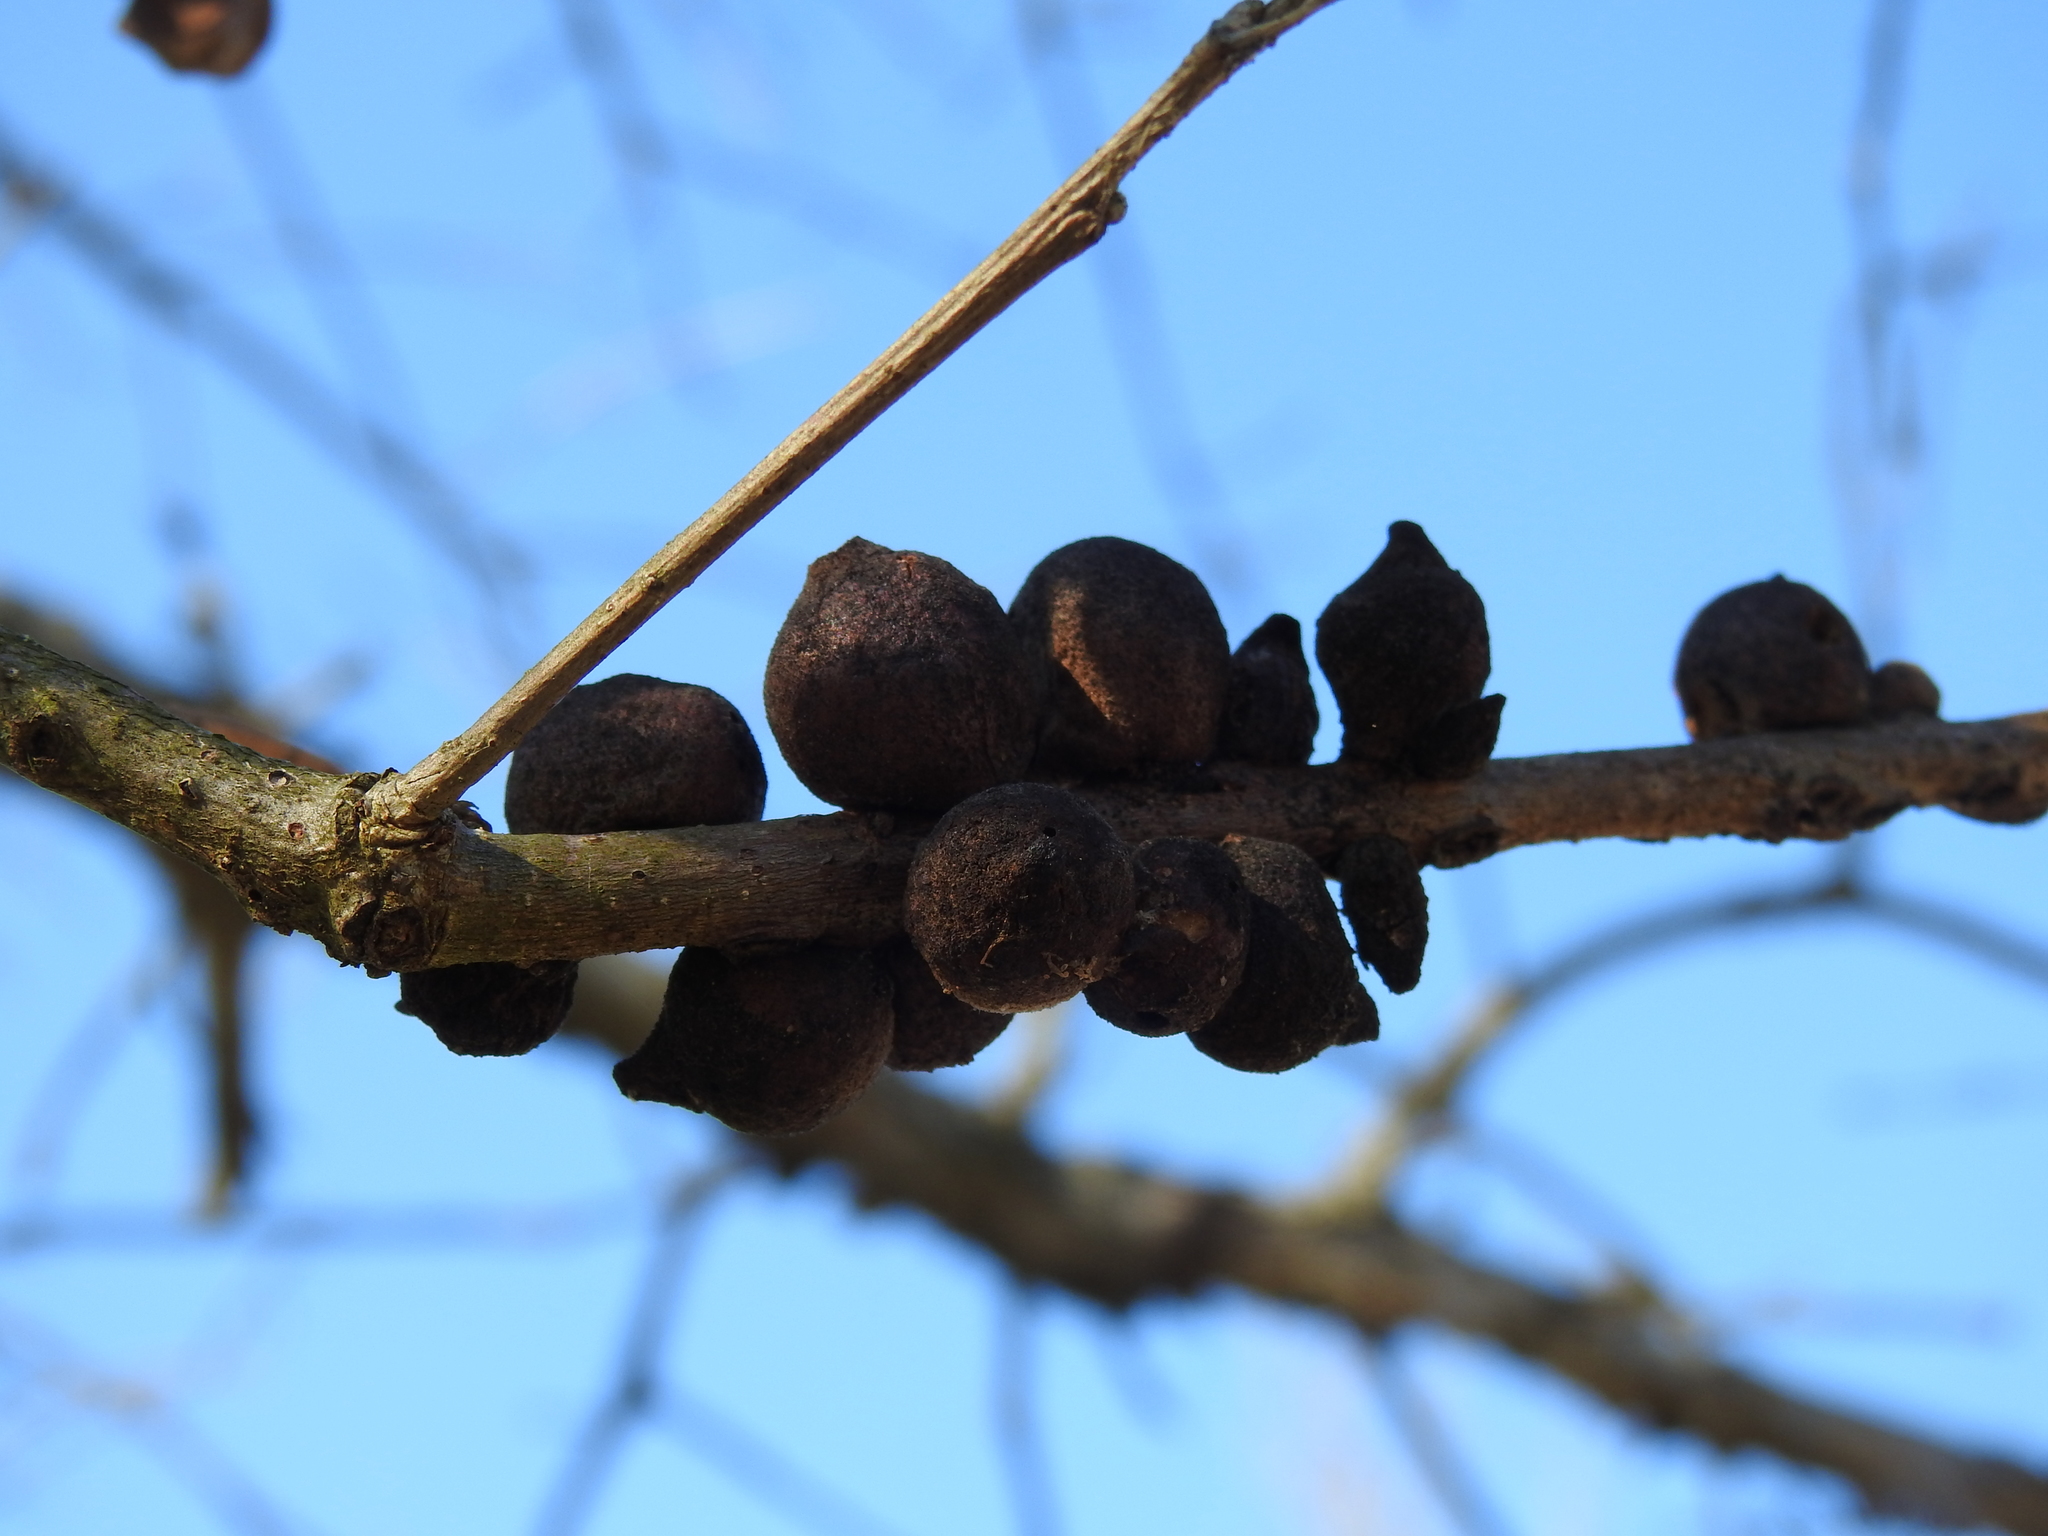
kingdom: Animalia
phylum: Arthropoda
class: Insecta
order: Hymenoptera
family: Cynipidae
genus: Disholcaspis
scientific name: Disholcaspis
